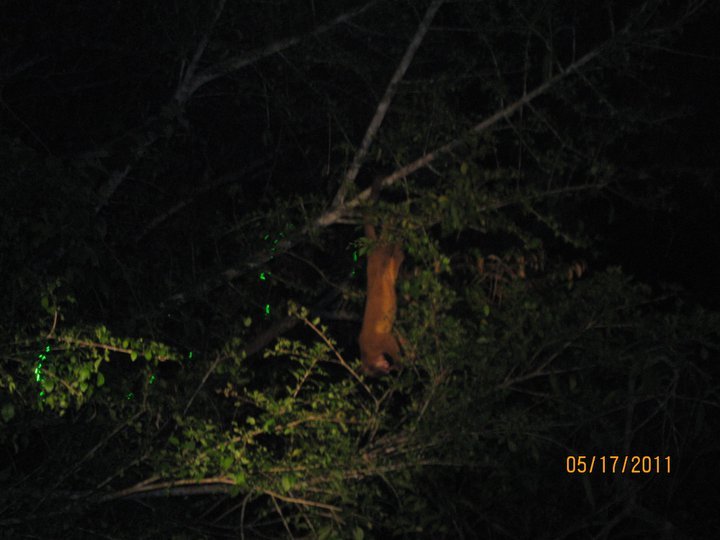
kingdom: Animalia
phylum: Chordata
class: Mammalia
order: Carnivora
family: Procyonidae
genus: Potos
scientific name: Potos flavus
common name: Kinkajou
